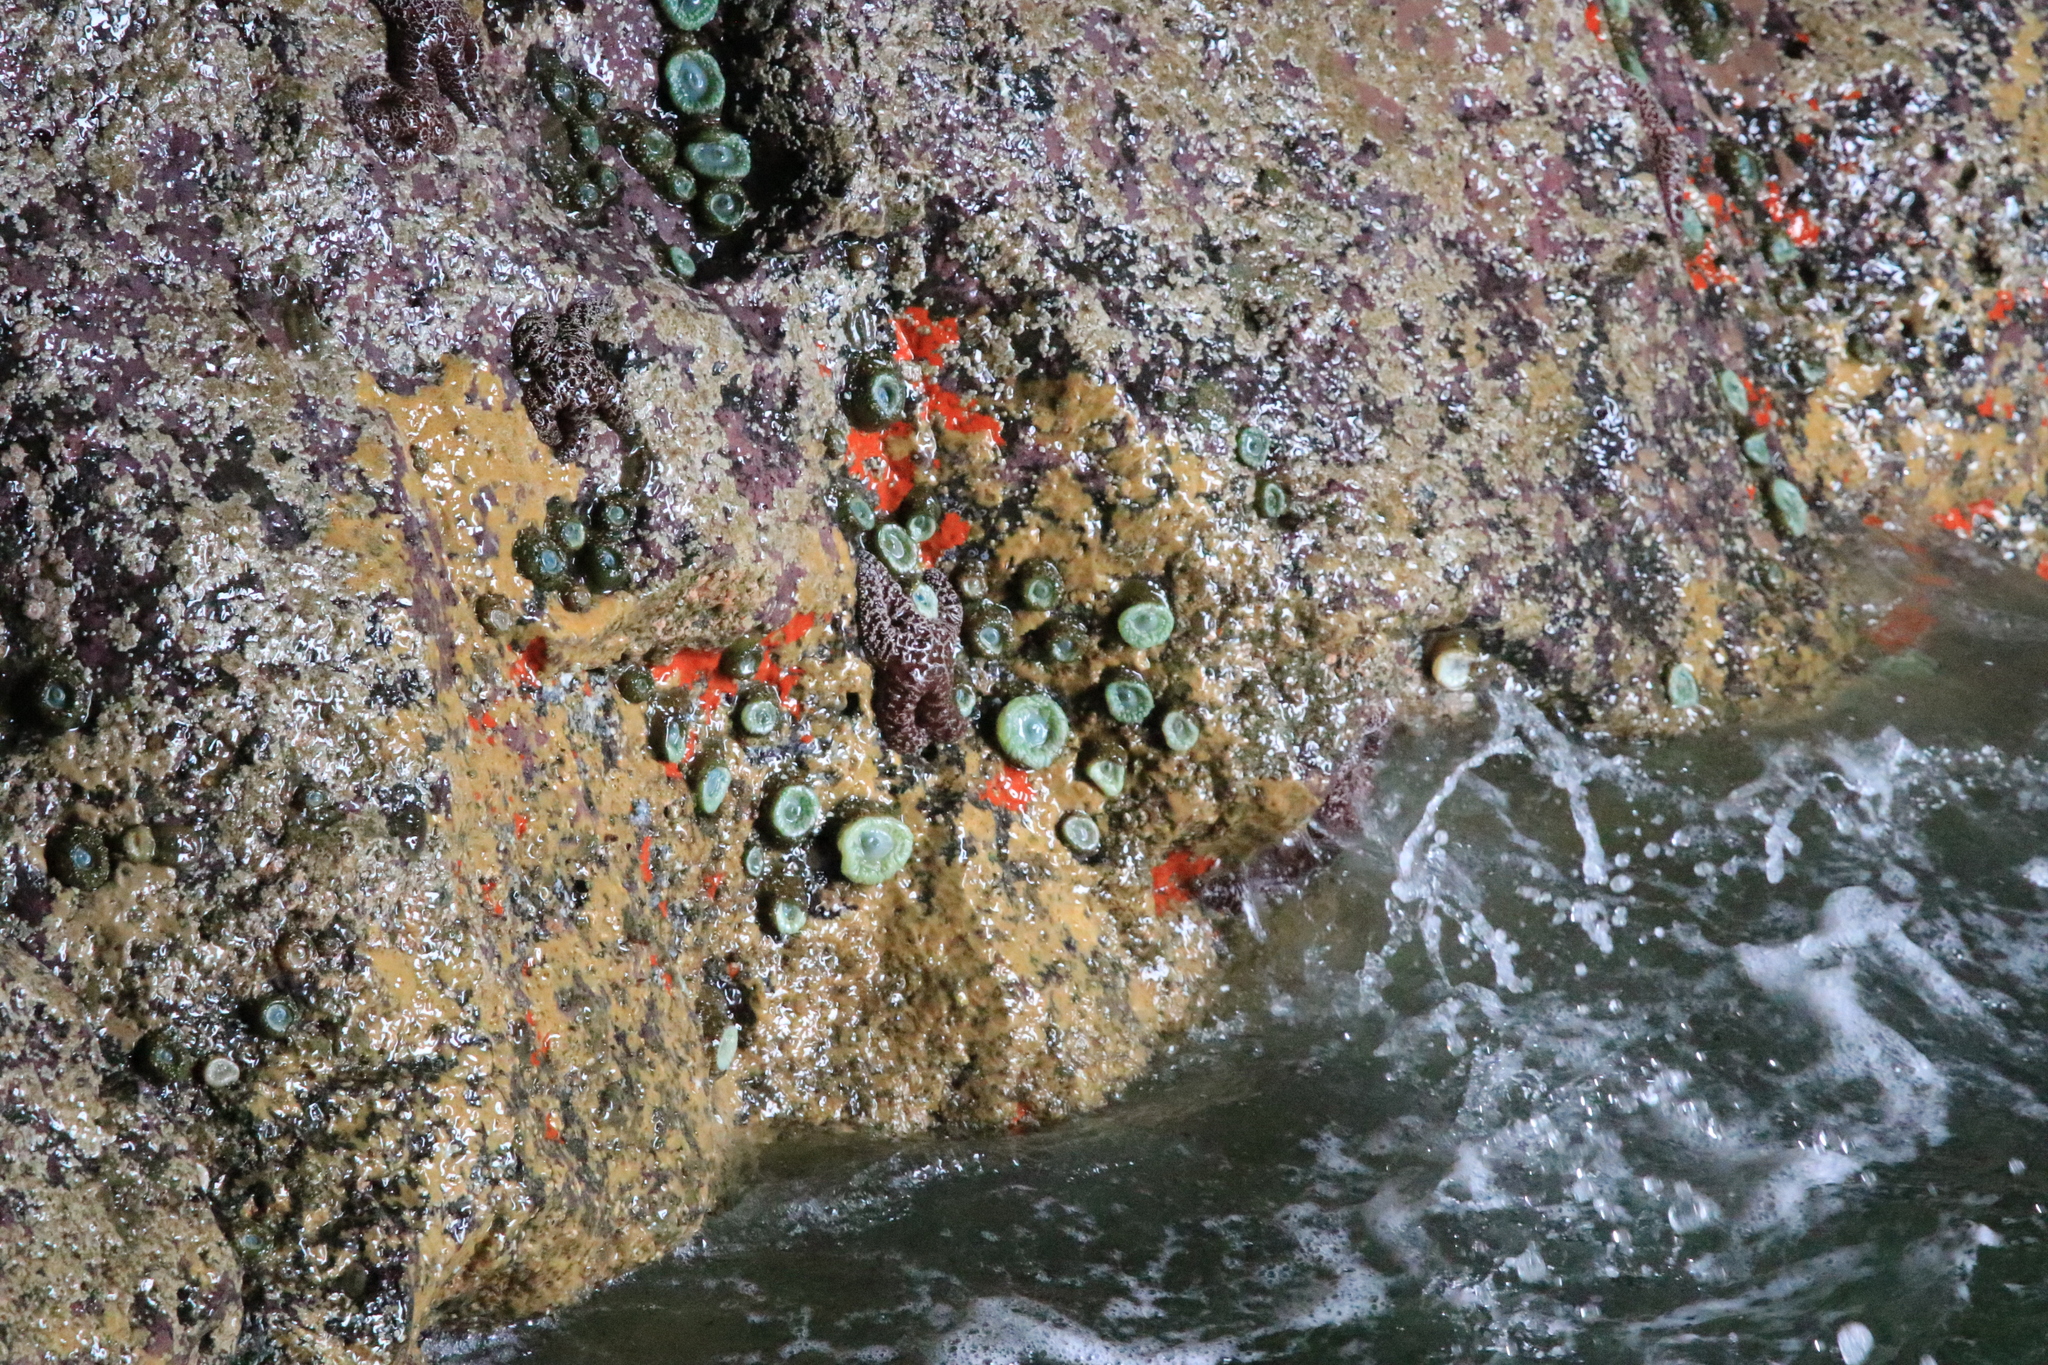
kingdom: Animalia
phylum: Echinodermata
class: Asteroidea
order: Forcipulatida
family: Asteriidae
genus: Pisaster
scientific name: Pisaster ochraceus
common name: Ochre stars
